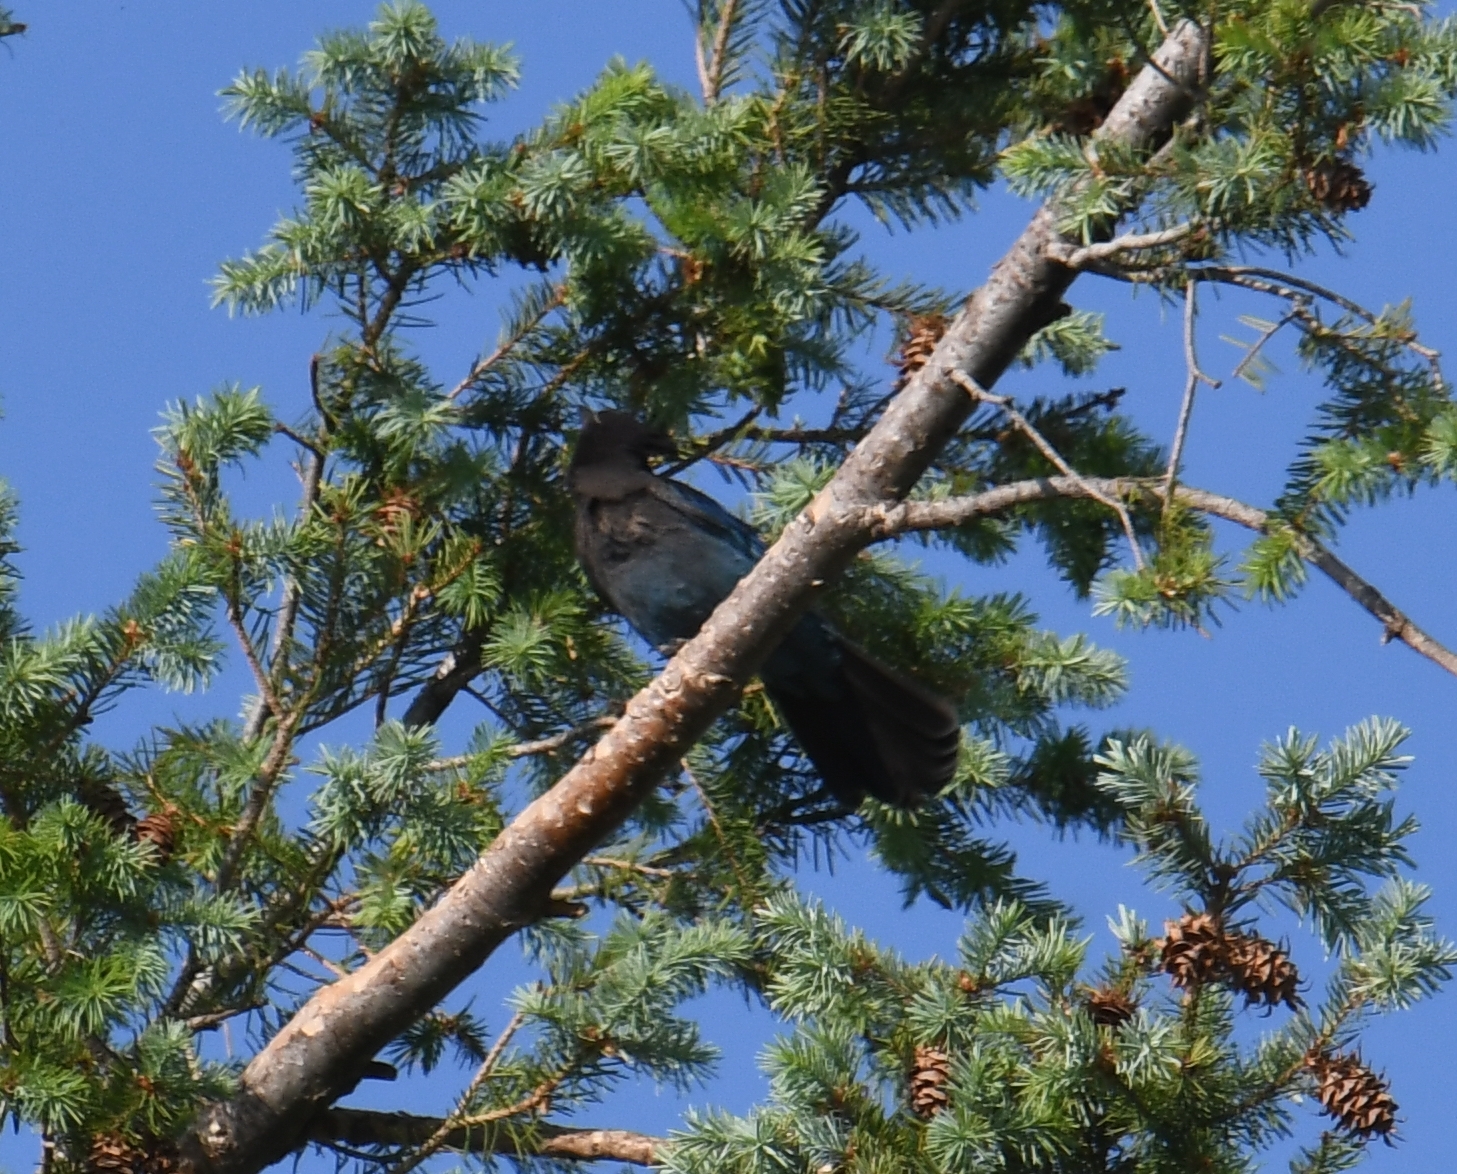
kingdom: Animalia
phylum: Chordata
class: Aves
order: Passeriformes
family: Corvidae
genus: Cyanocitta
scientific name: Cyanocitta stelleri
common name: Steller's jay
